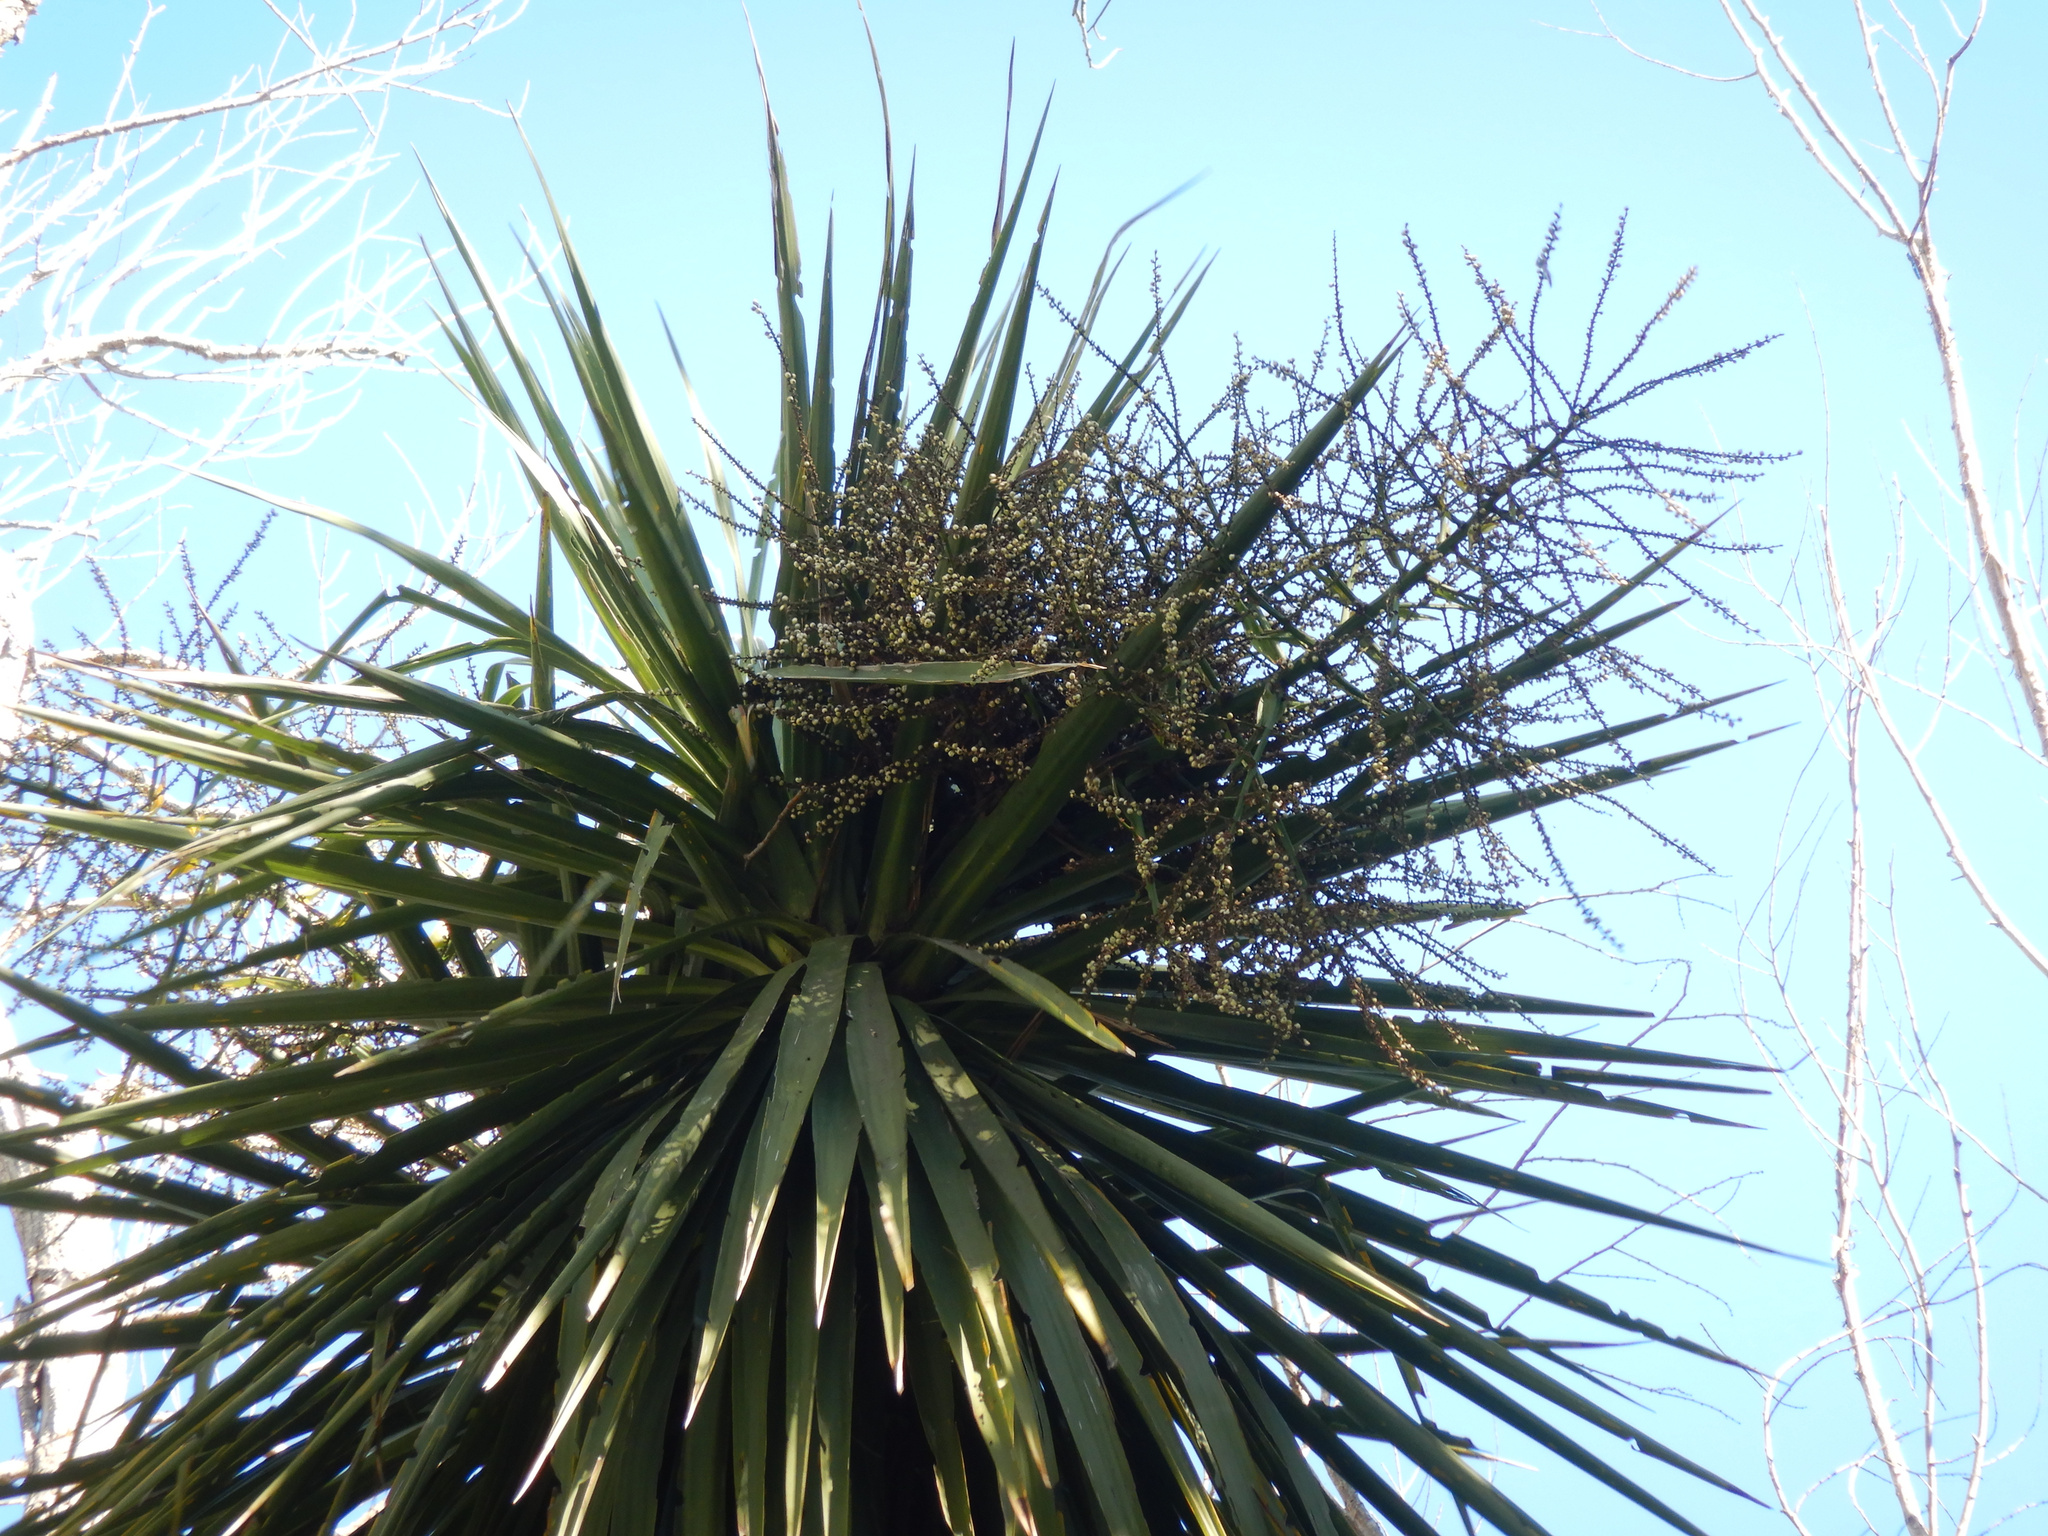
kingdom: Plantae
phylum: Tracheophyta
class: Liliopsida
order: Asparagales
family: Asparagaceae
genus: Cordyline
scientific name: Cordyline australis
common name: Cabbage-palm
